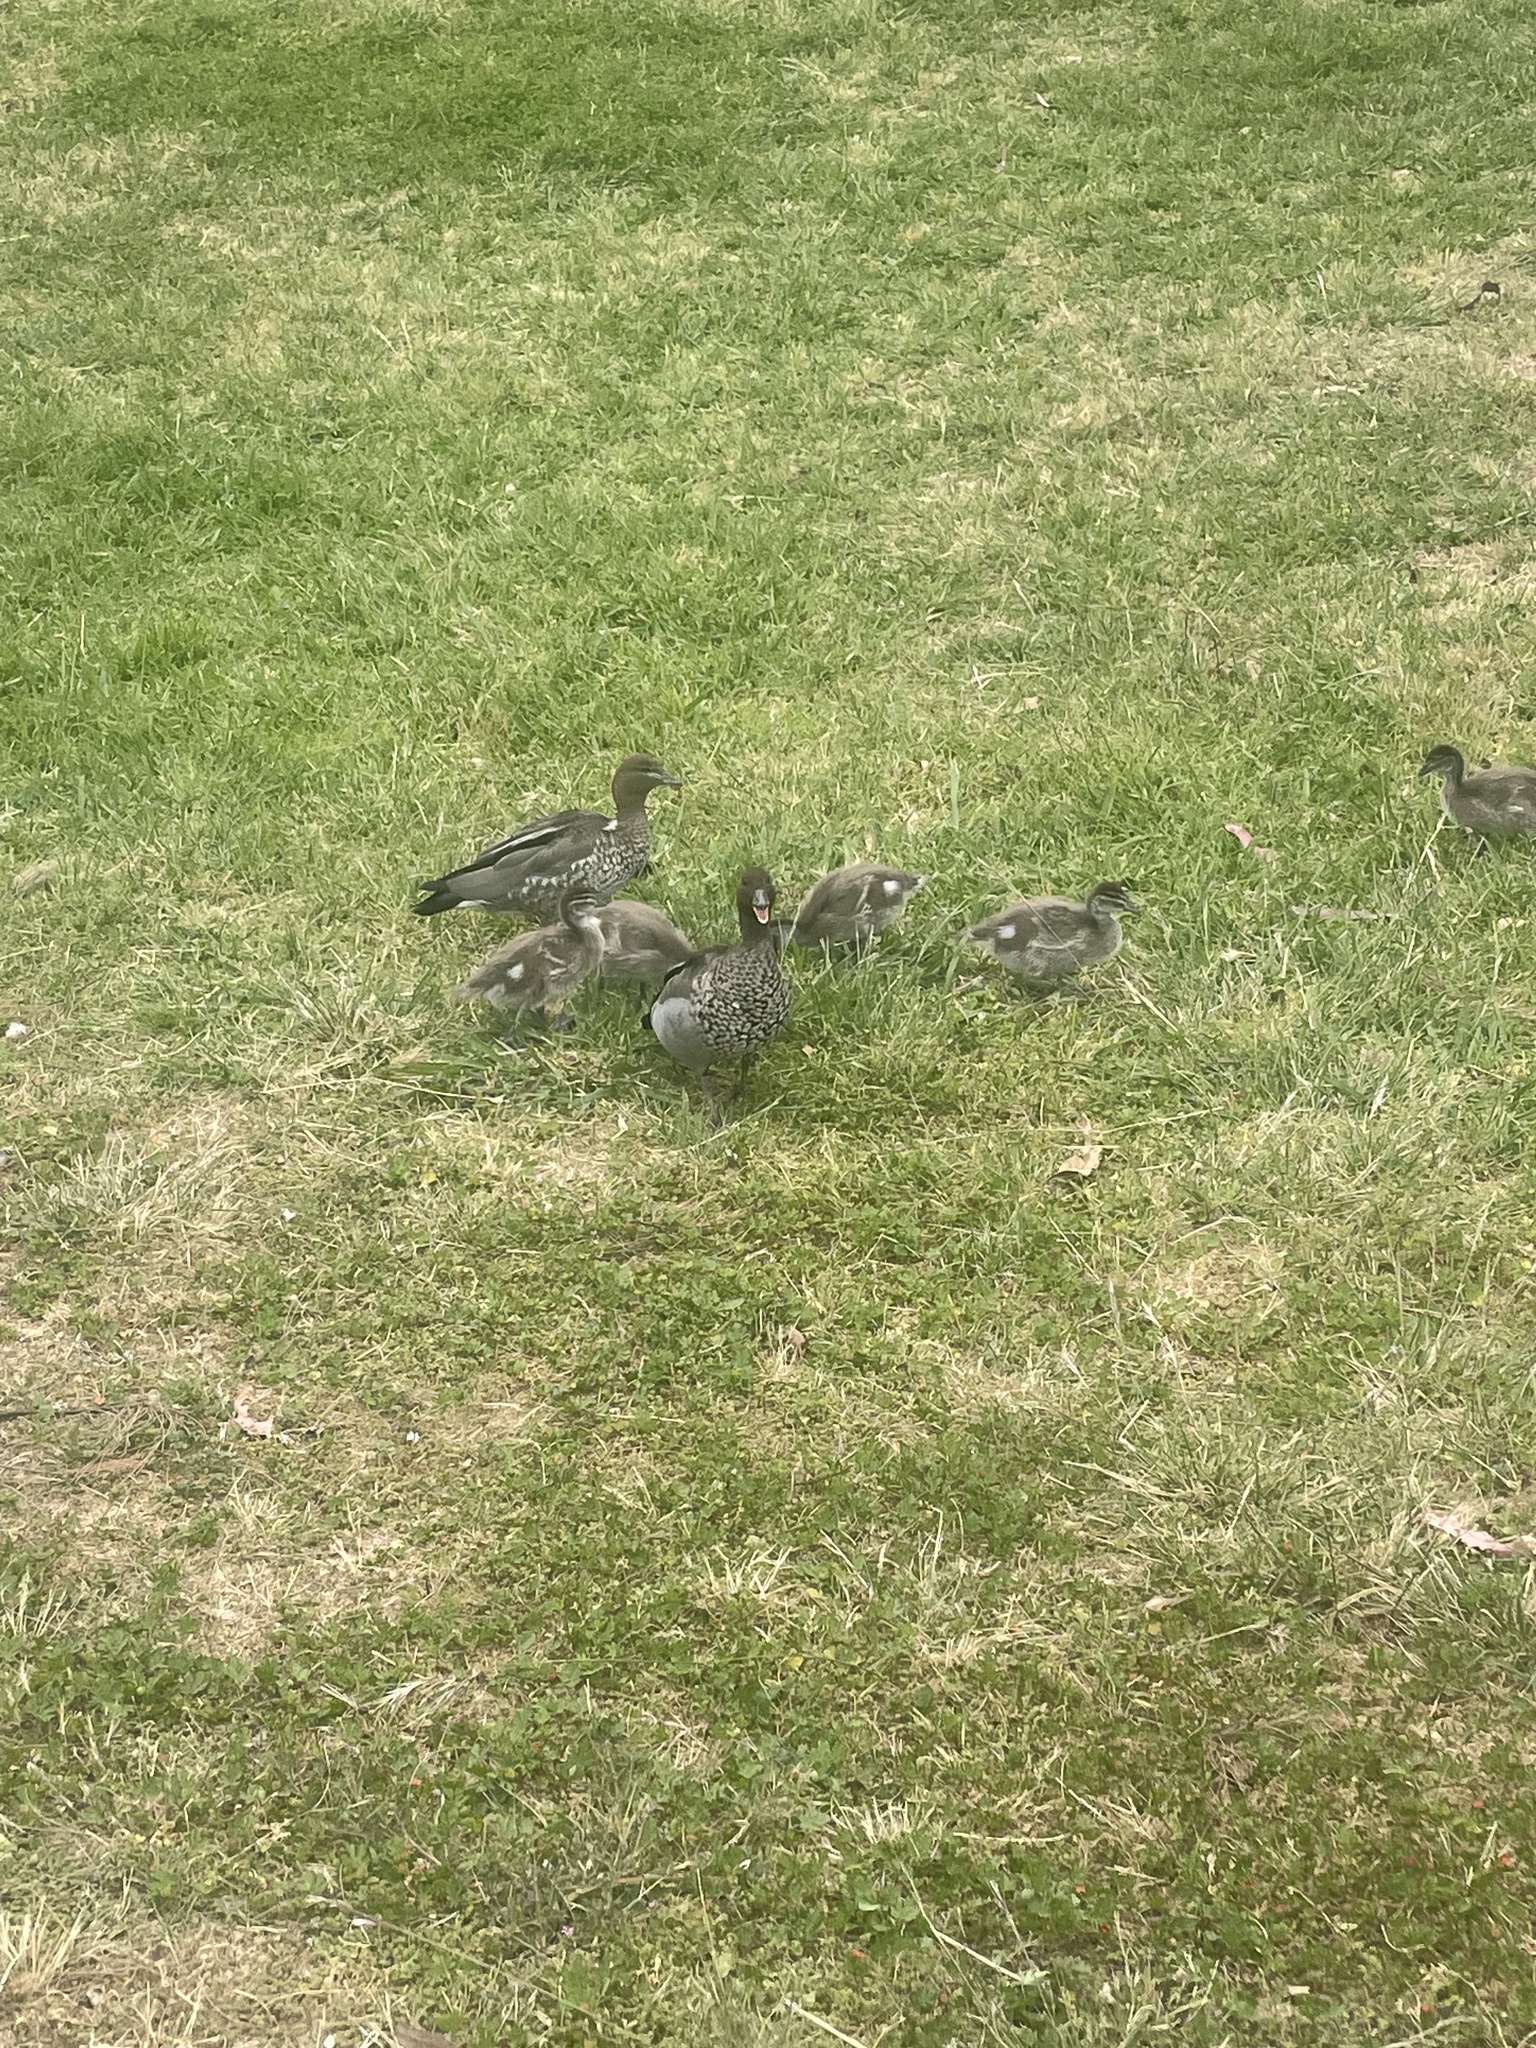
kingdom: Animalia
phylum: Chordata
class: Aves
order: Anseriformes
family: Anatidae
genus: Chenonetta
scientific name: Chenonetta jubata
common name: Maned duck
